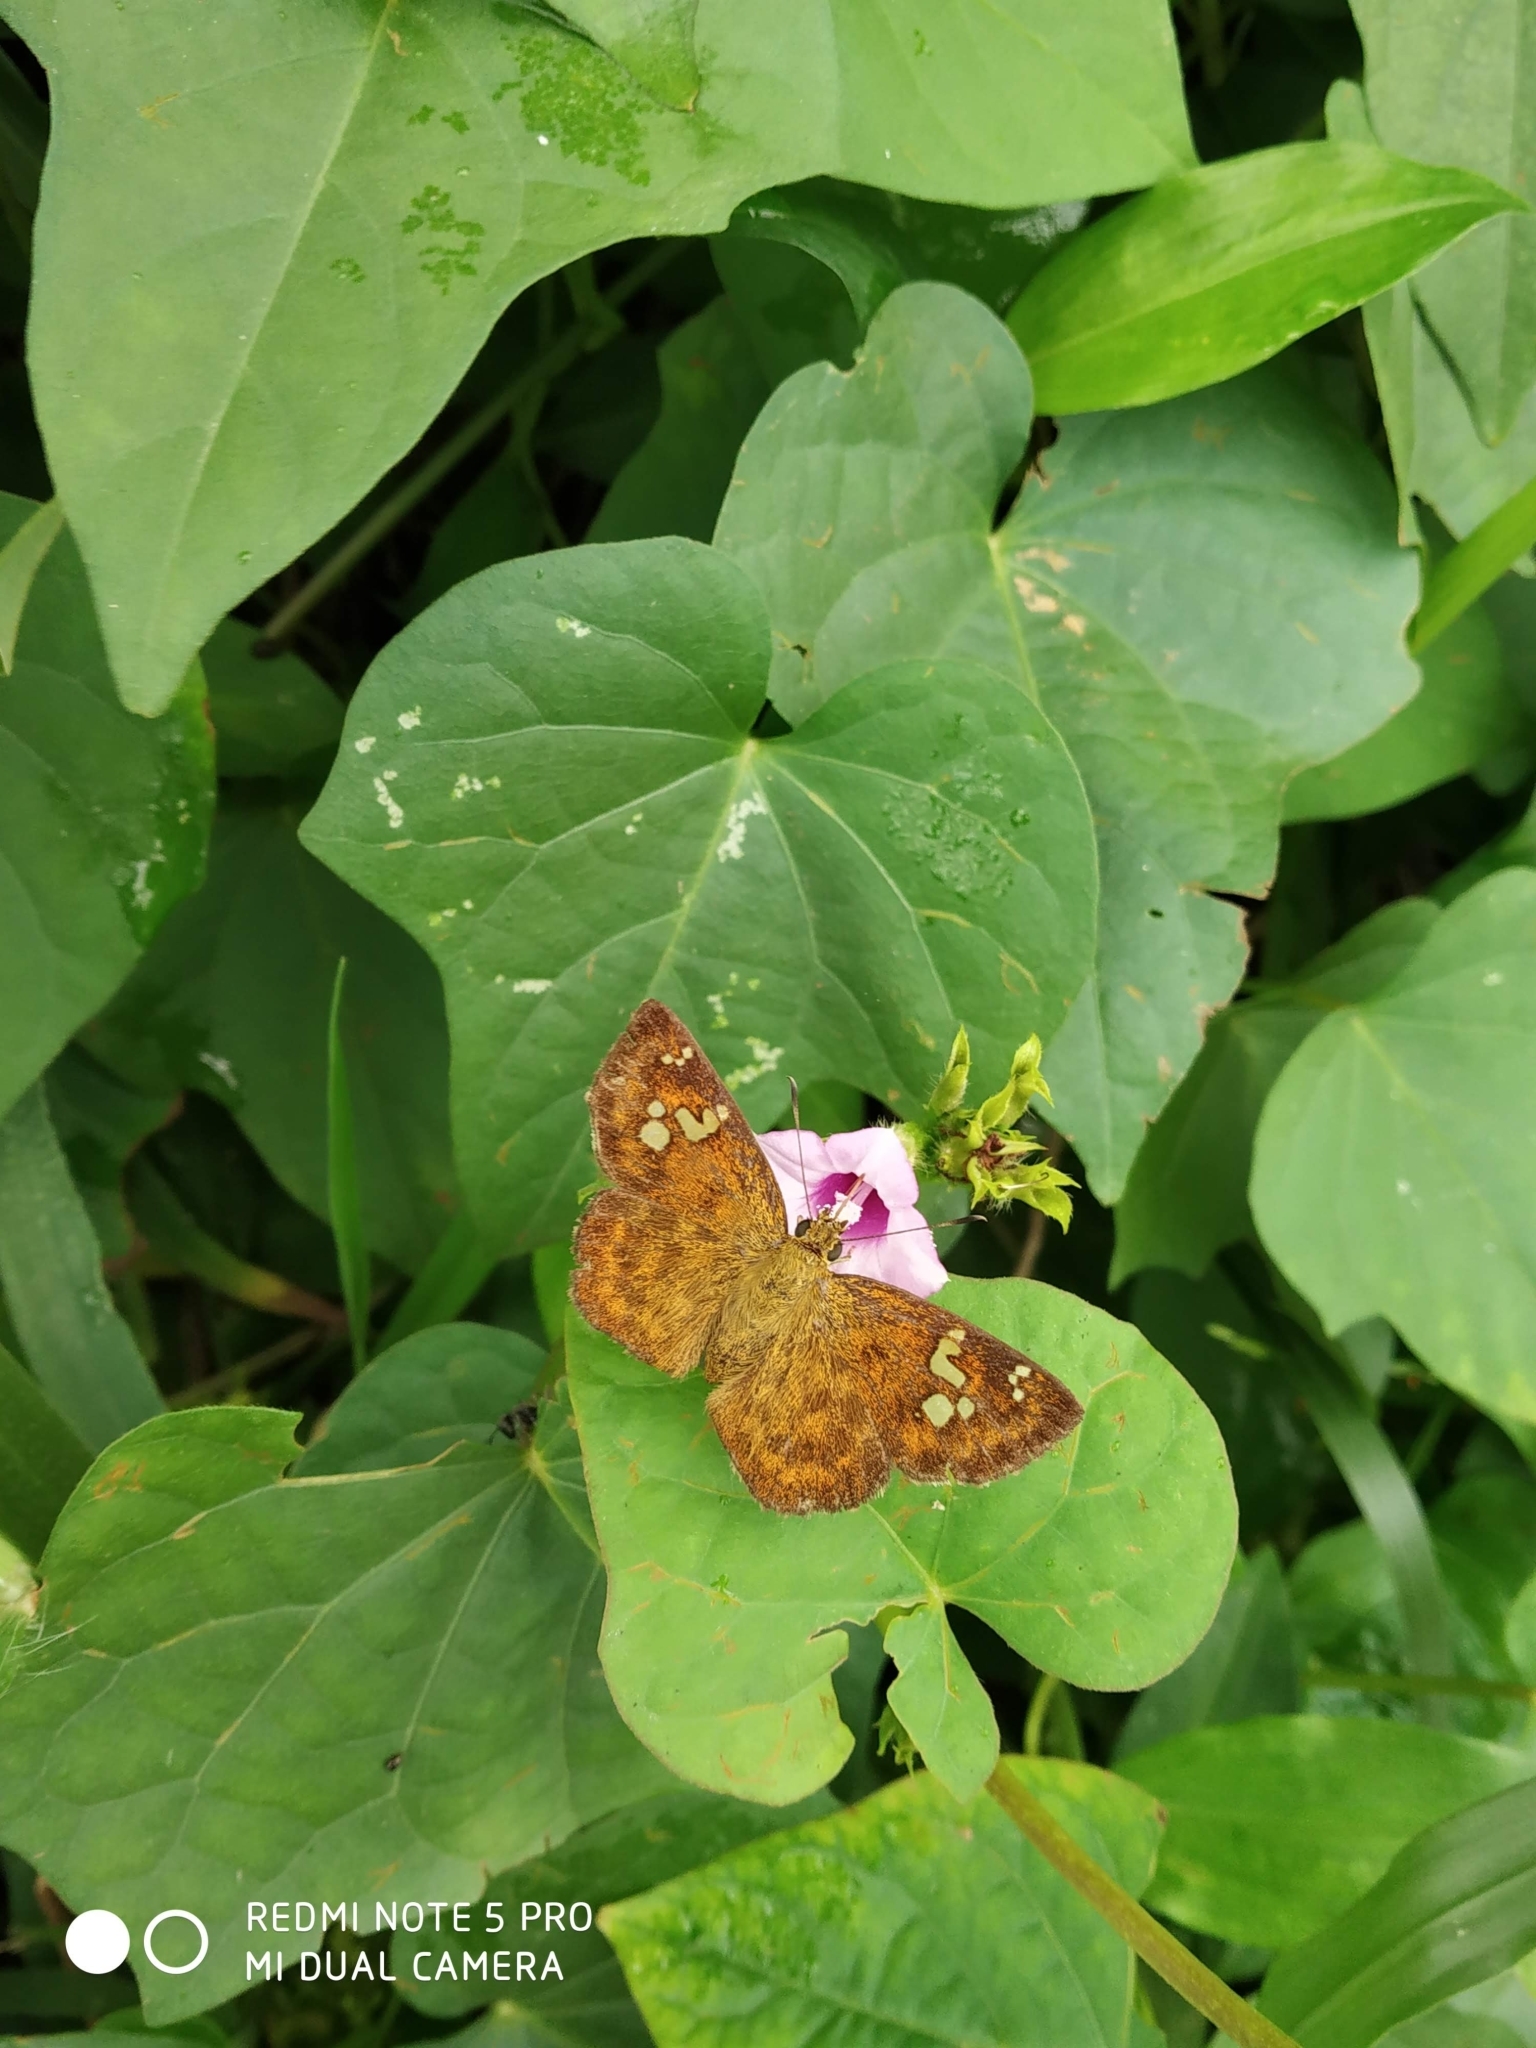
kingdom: Animalia
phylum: Arthropoda
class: Insecta
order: Lepidoptera
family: Hesperiidae
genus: Pseudocoladenia
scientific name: Pseudocoladenia dan
